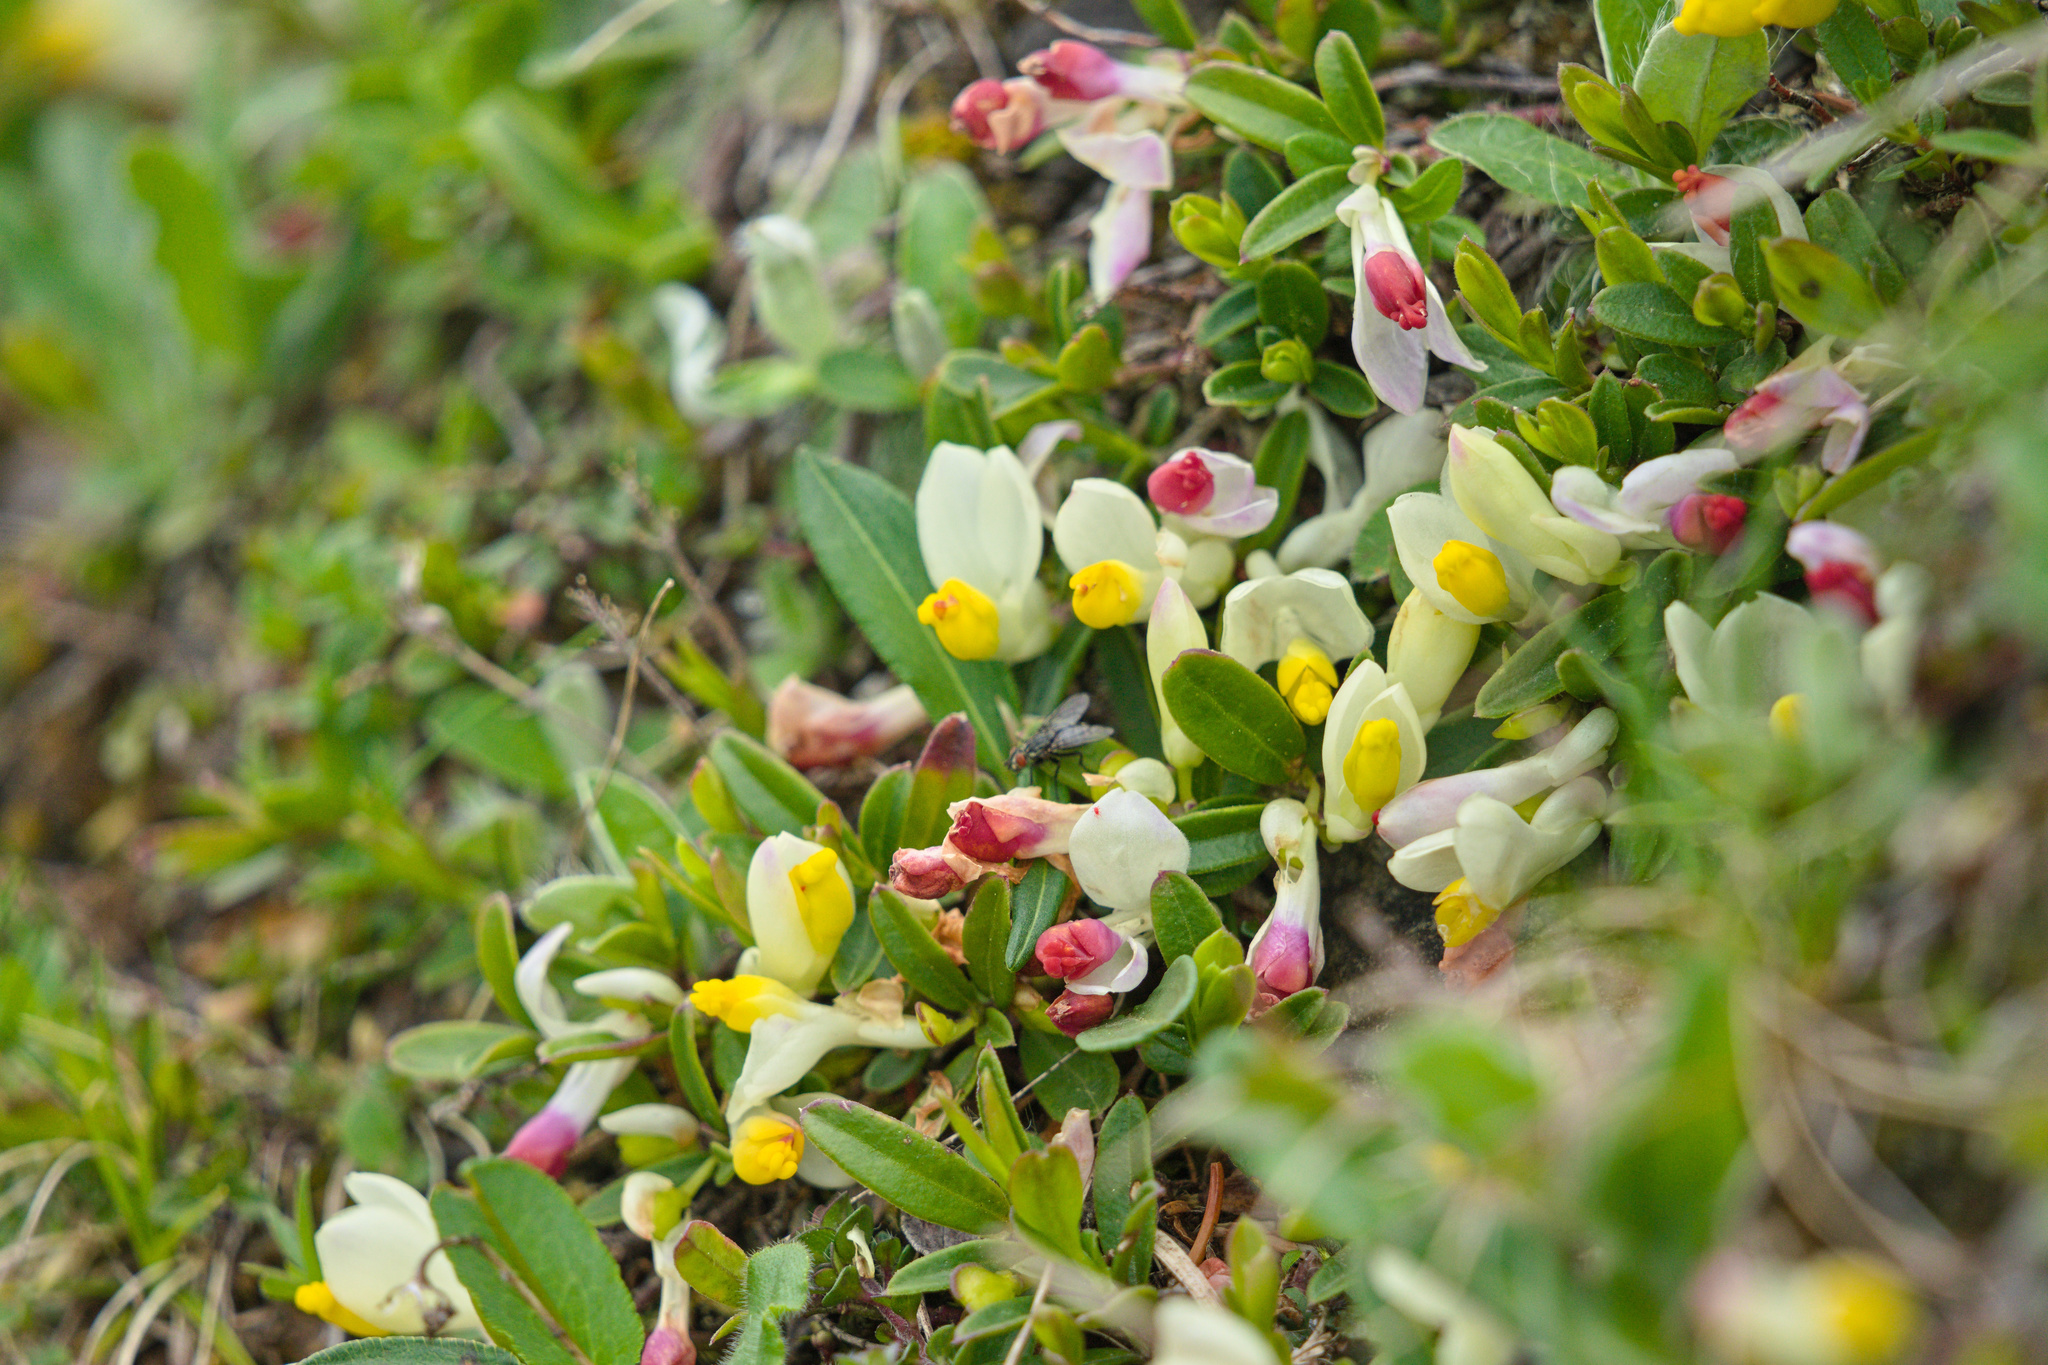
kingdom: Plantae
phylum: Tracheophyta
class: Magnoliopsida
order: Fabales
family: Polygalaceae
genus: Polygaloides
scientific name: Polygaloides chamaebuxus
